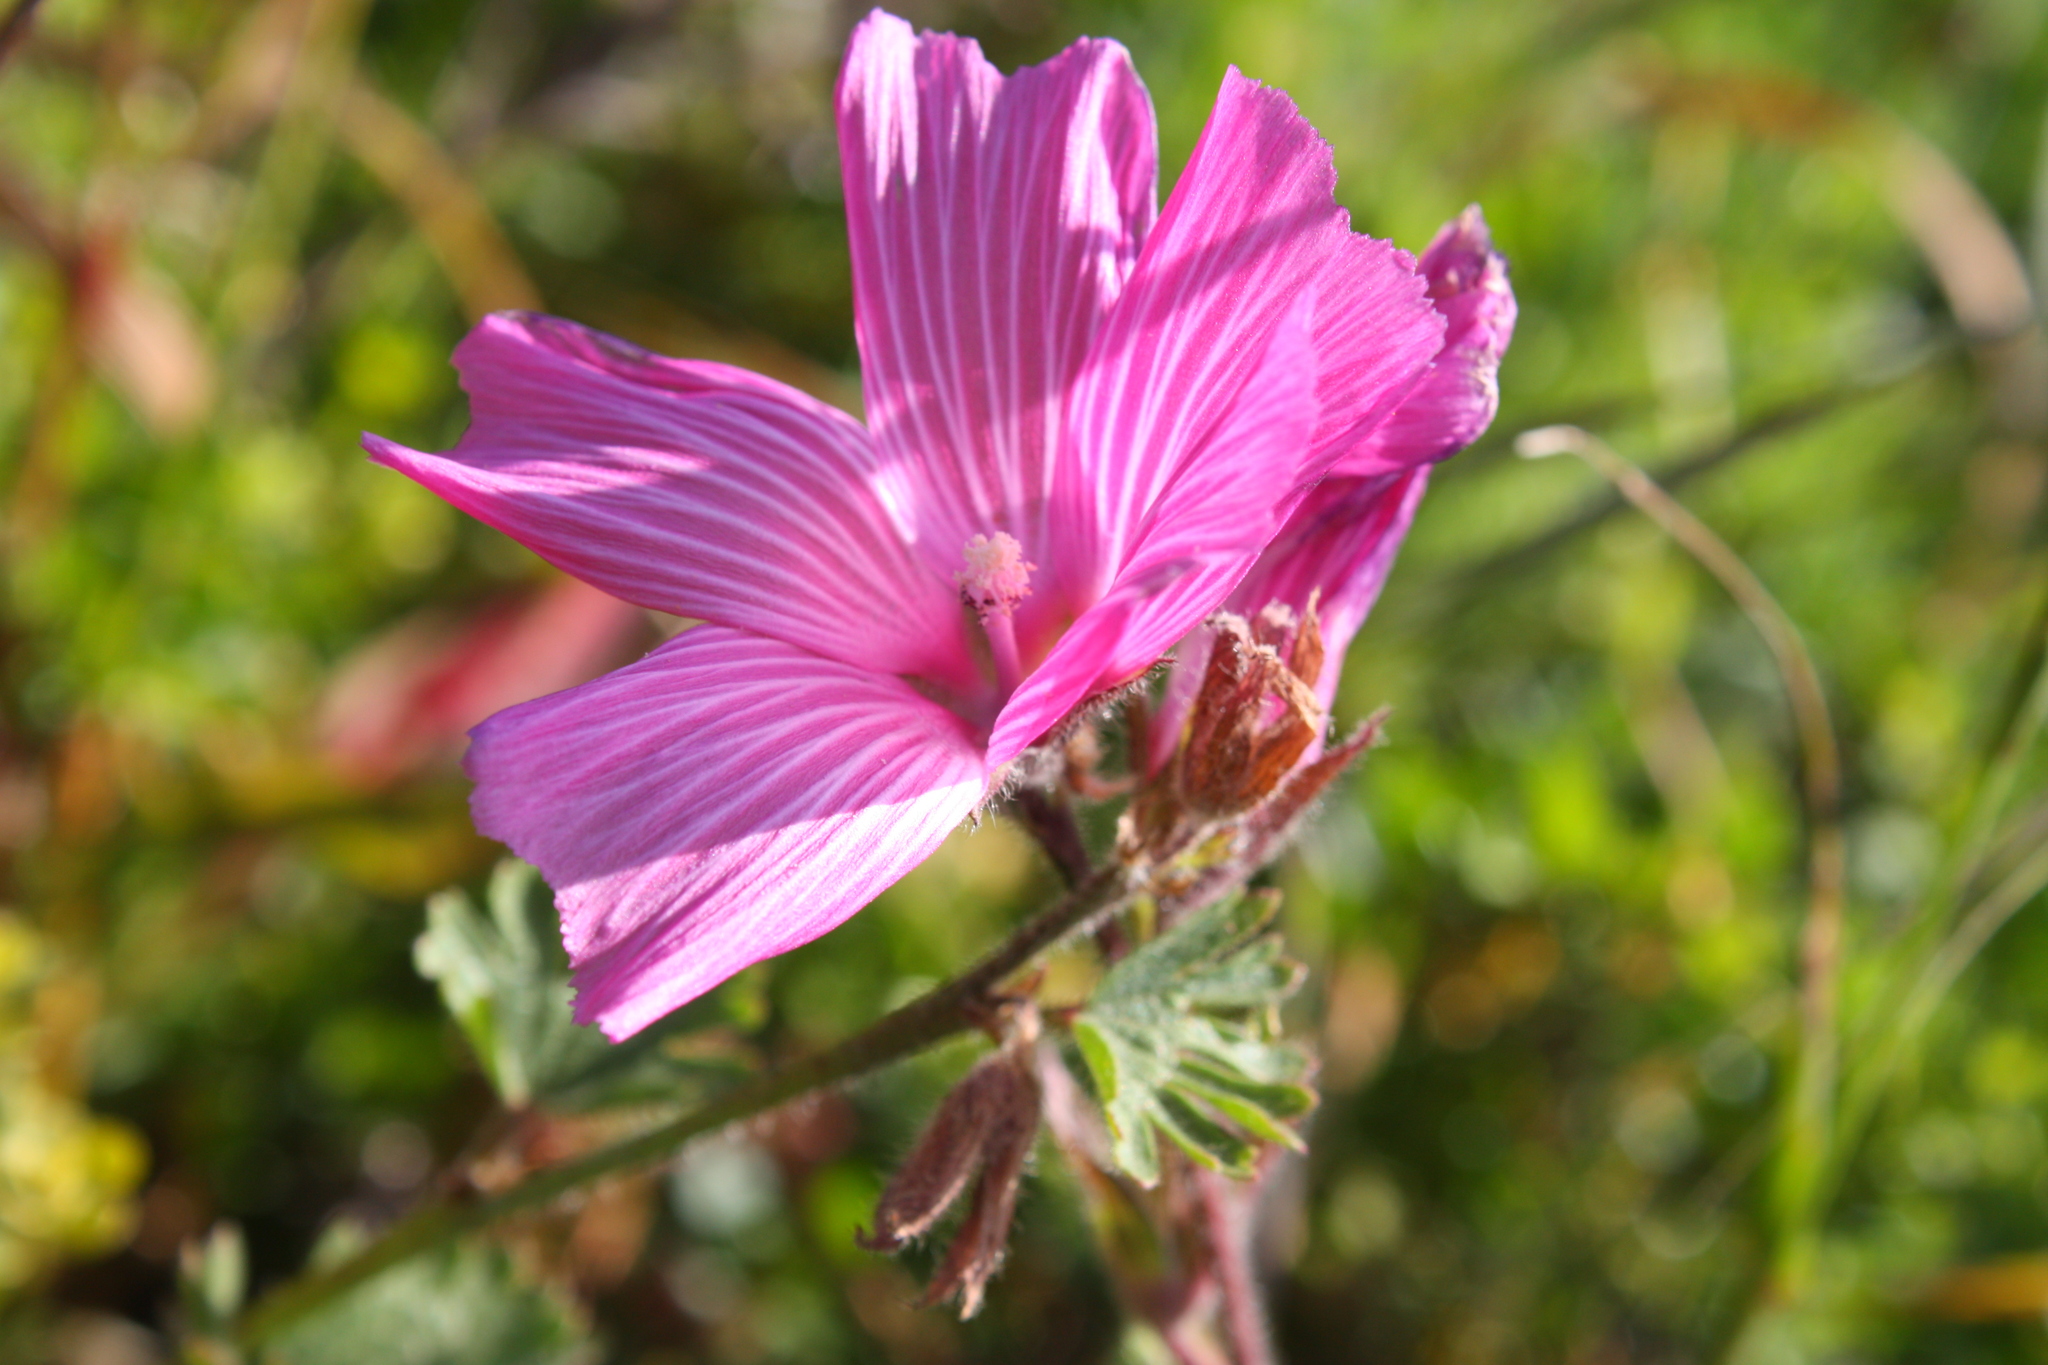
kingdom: Plantae
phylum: Tracheophyta
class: Magnoliopsida
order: Malvales
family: Malvaceae
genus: Sidalcea
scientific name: Sidalcea malviflora
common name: Greek mallow
